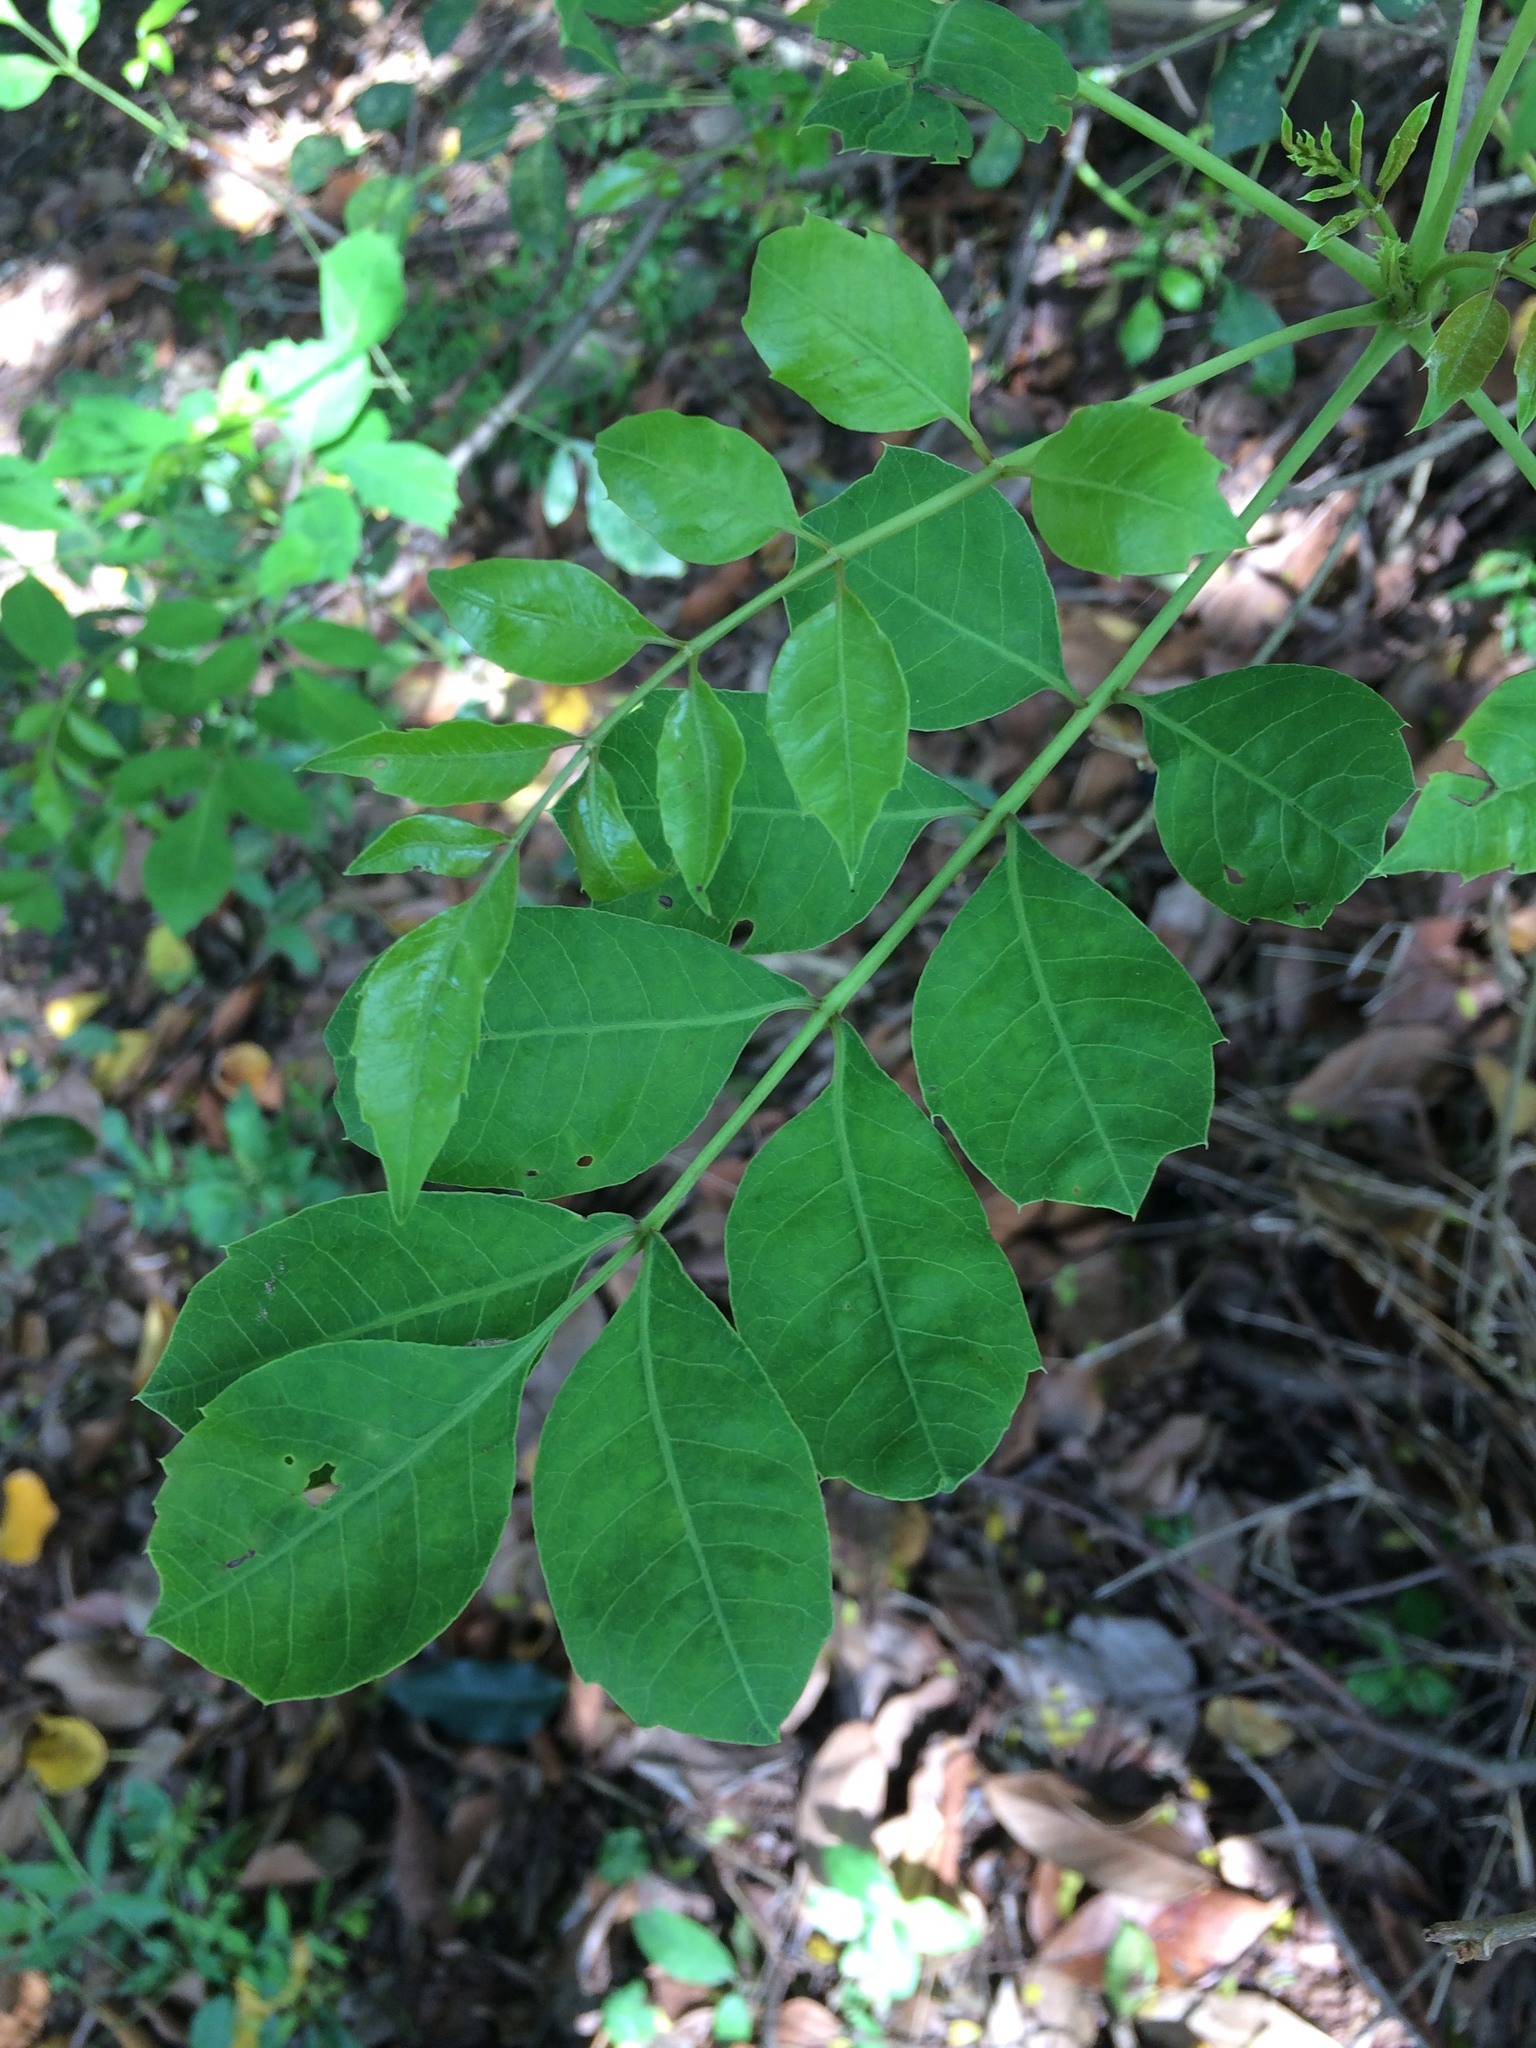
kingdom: Plantae
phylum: Tracheophyta
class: Magnoliopsida
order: Sapindales
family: Anacardiaceae
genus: Sclerocarya
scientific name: Sclerocarya birrea
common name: Marula
